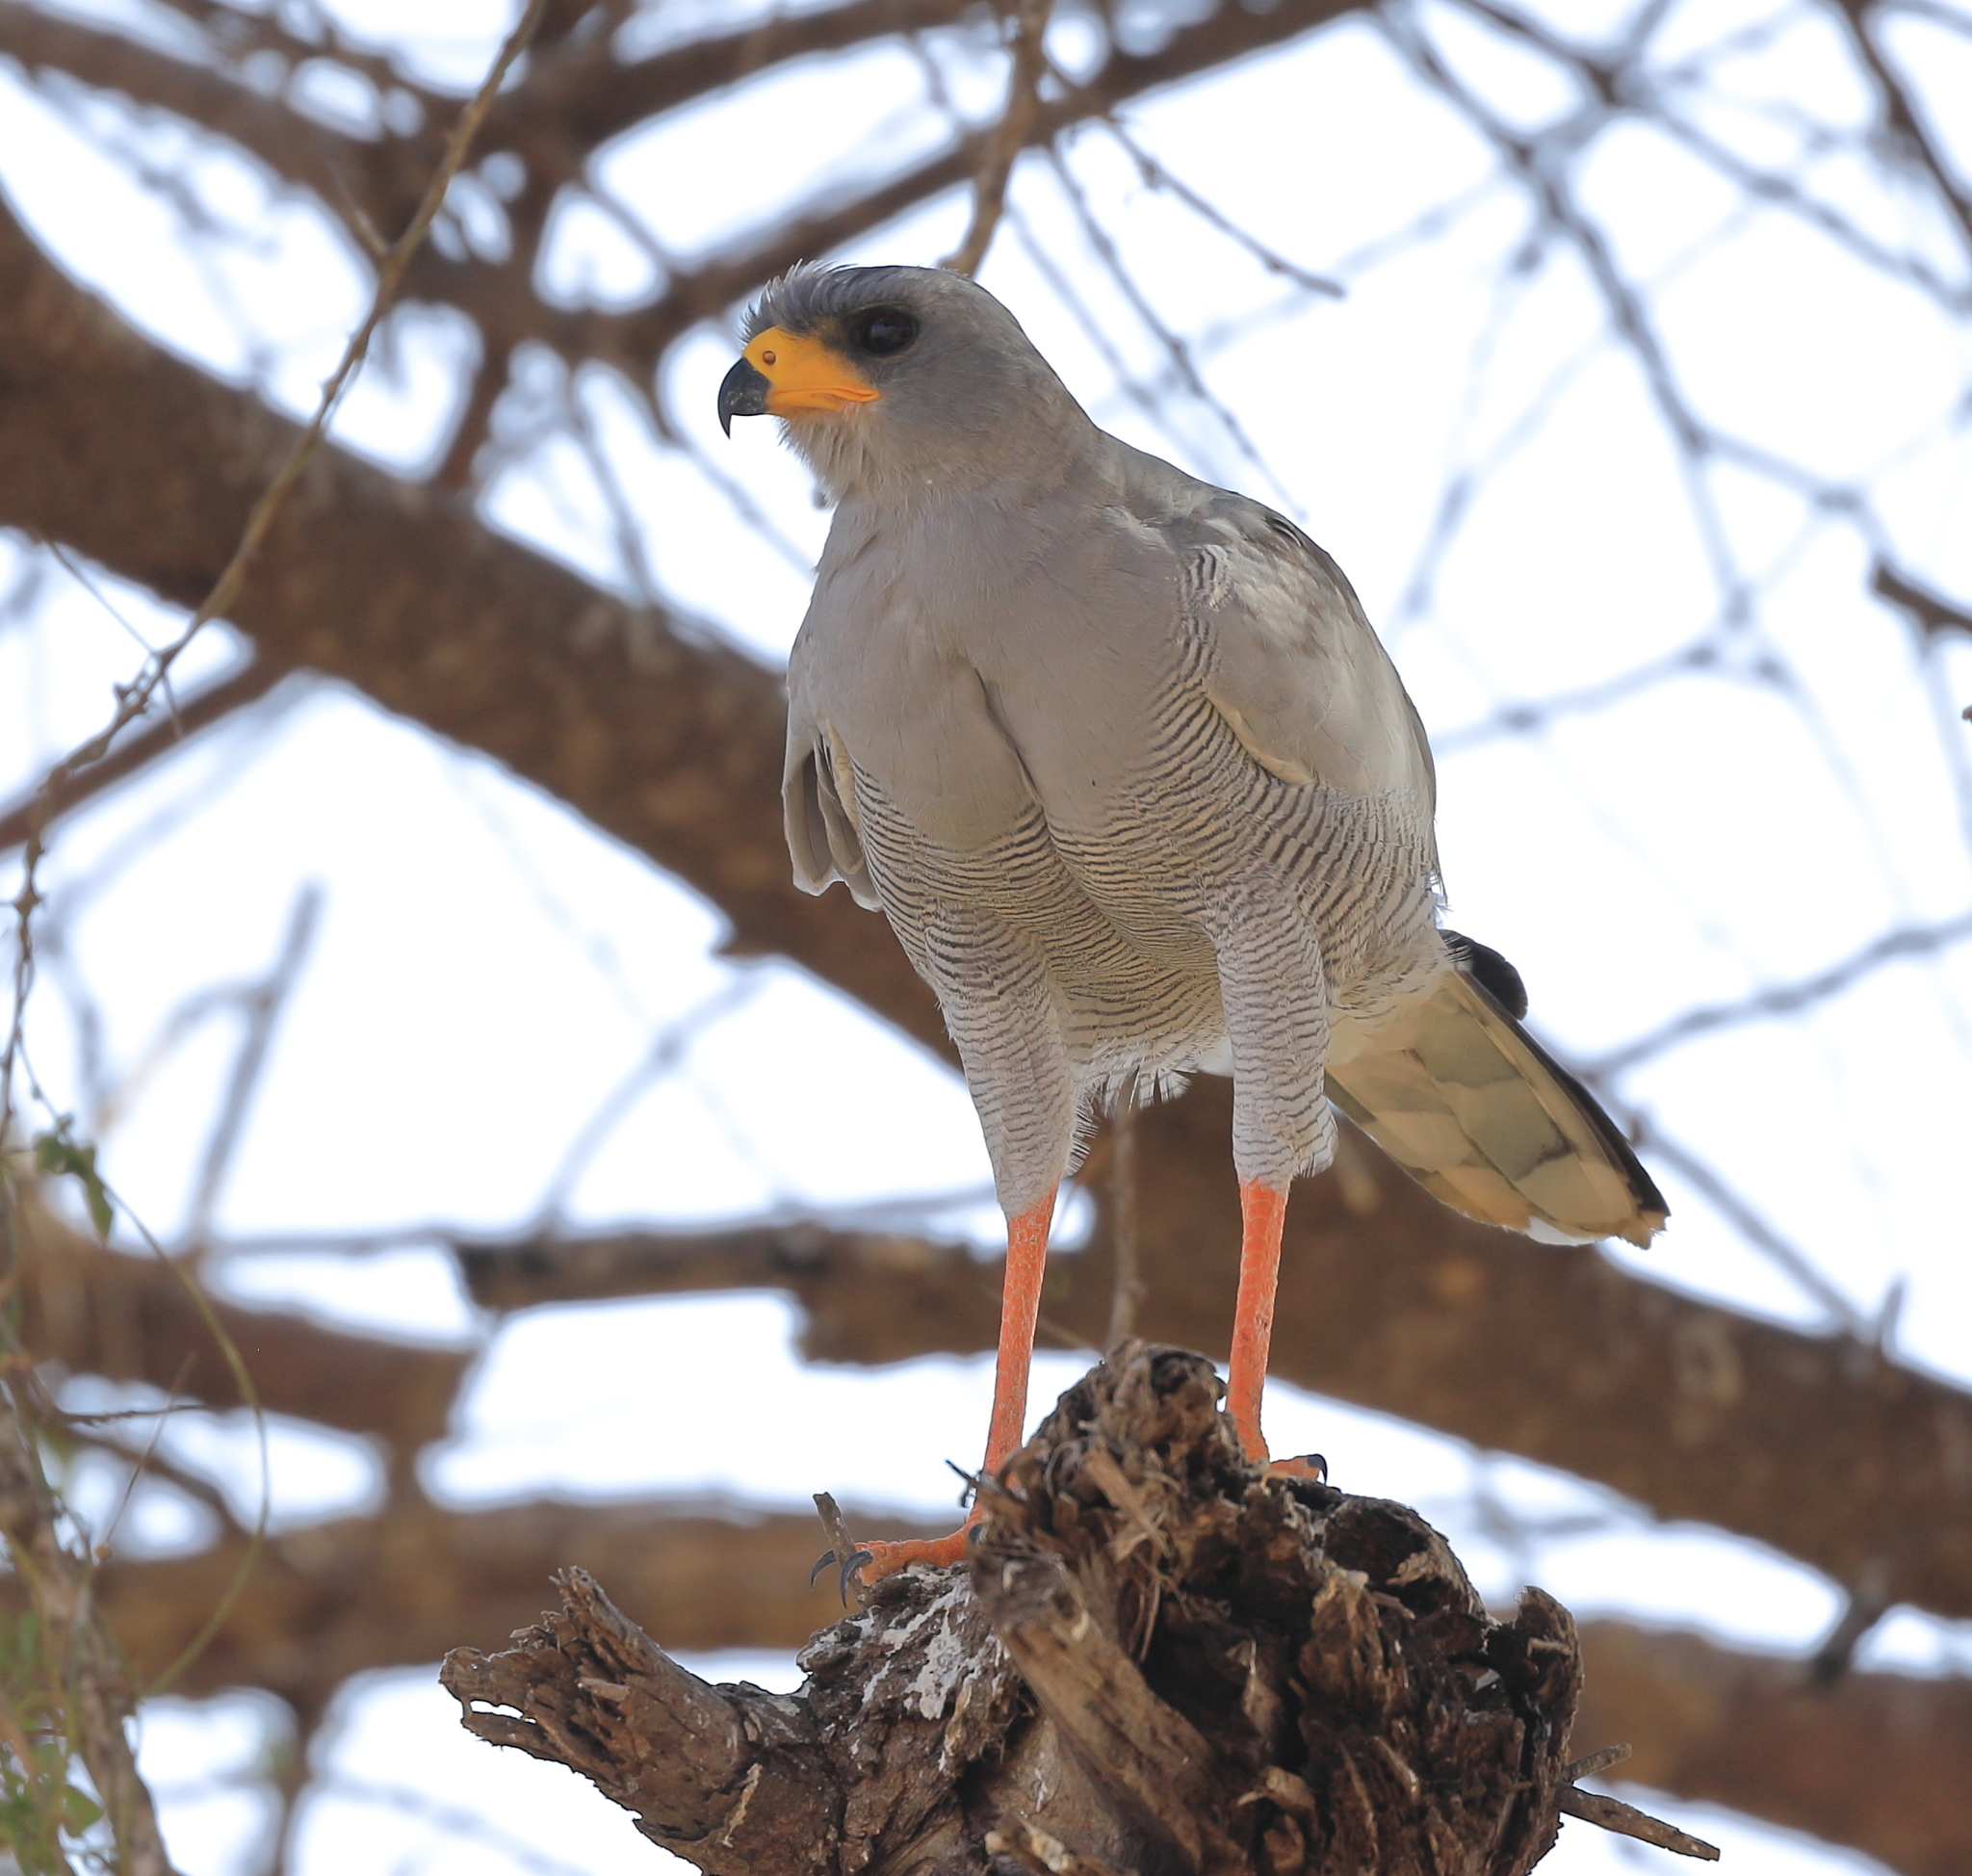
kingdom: Animalia
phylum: Chordata
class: Aves
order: Accipitriformes
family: Accipitridae
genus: Melierax
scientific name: Melierax poliopterus
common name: Eastern chanting goshawk
